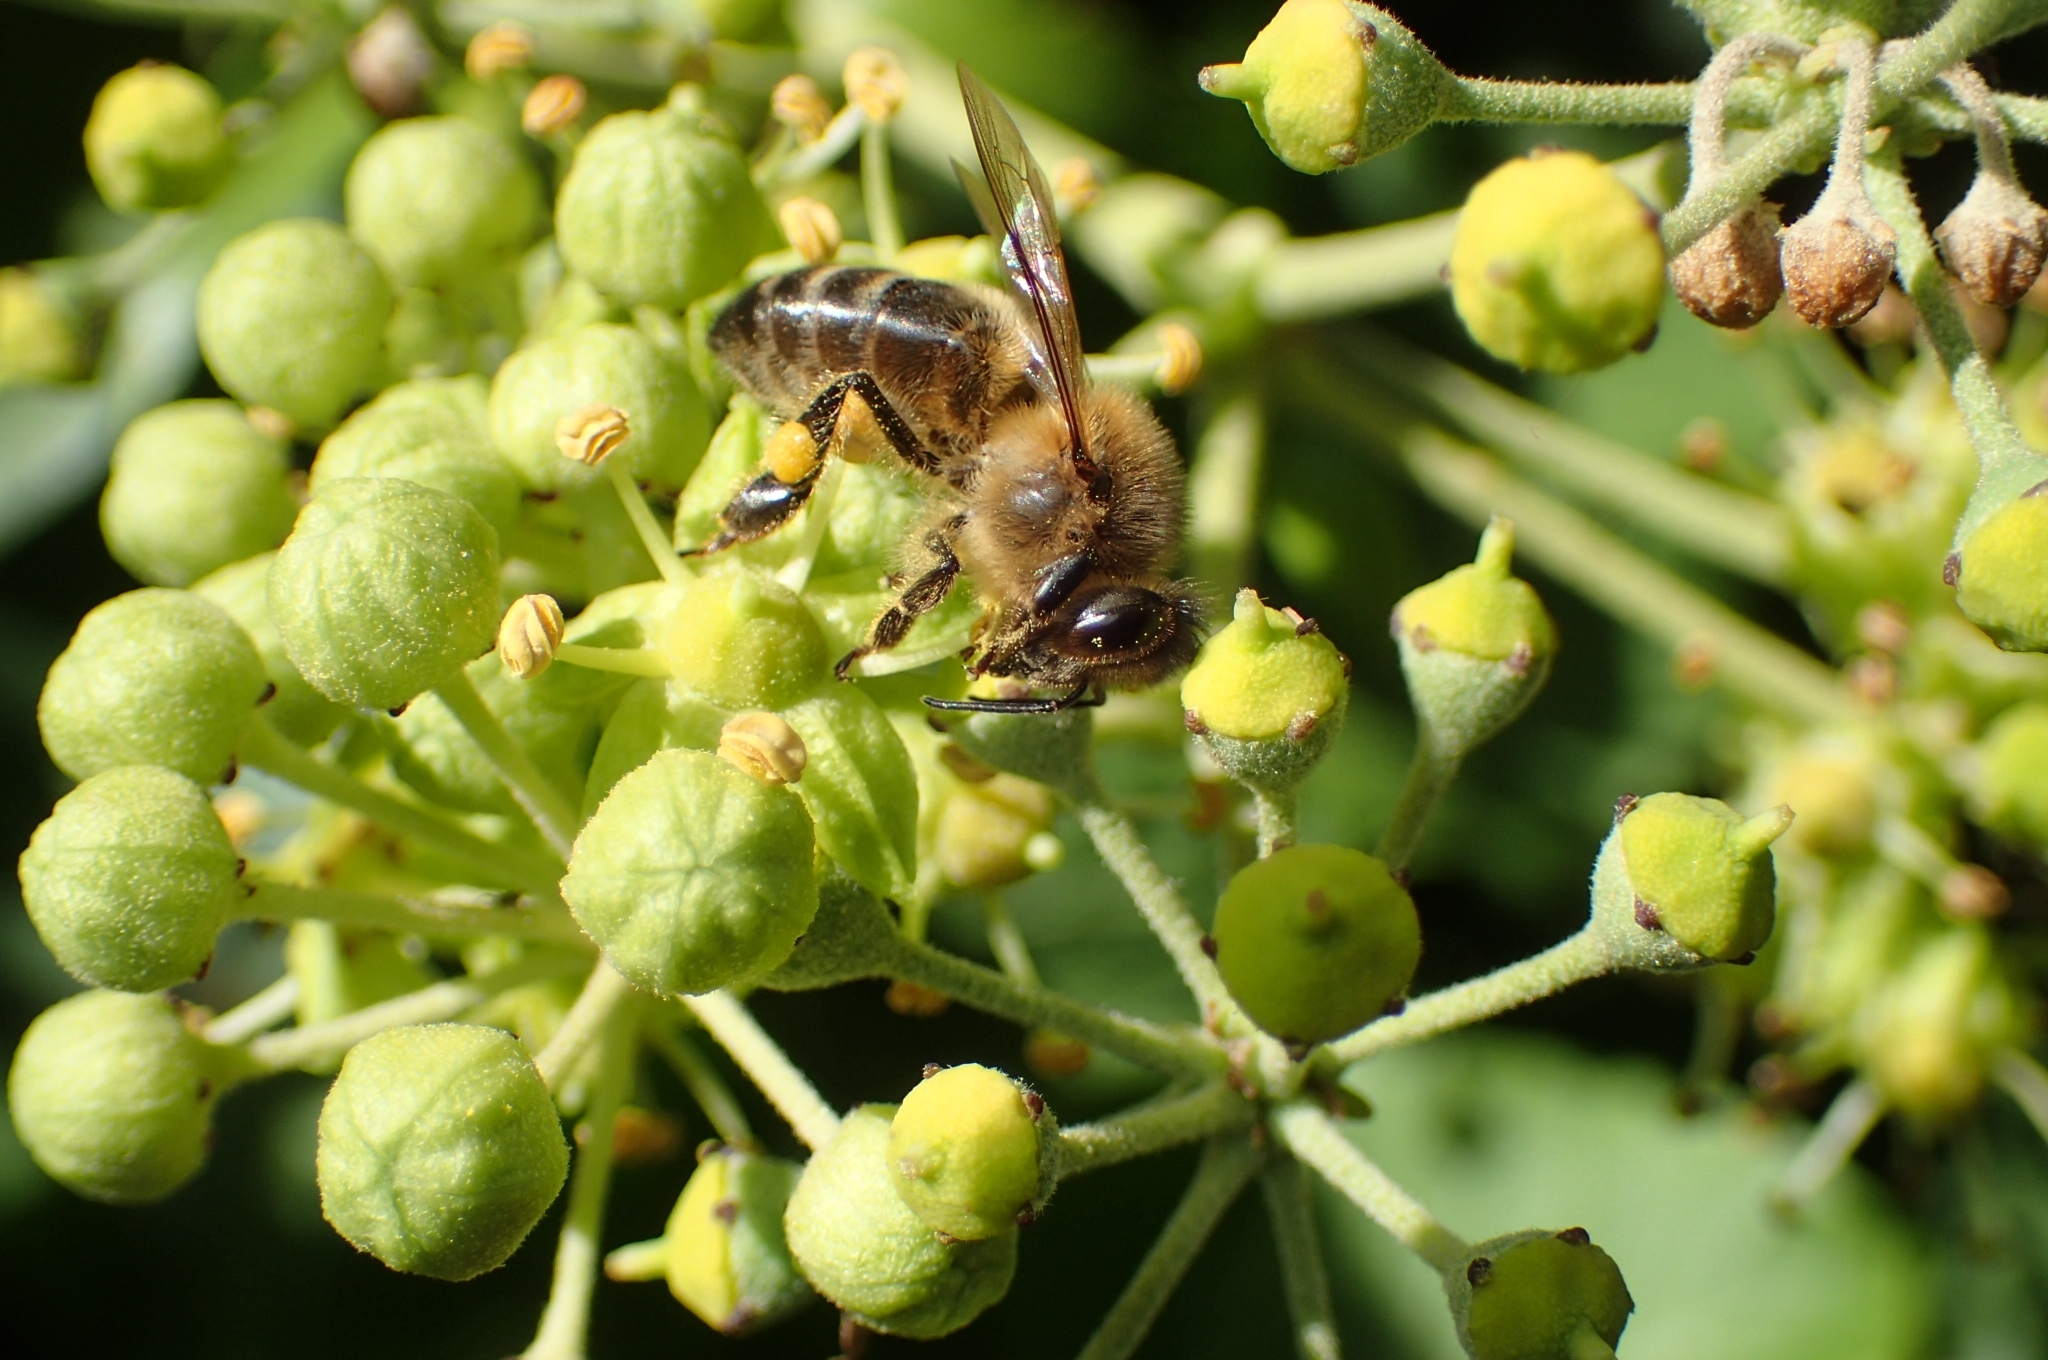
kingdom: Animalia
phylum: Arthropoda
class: Insecta
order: Hymenoptera
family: Apidae
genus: Apis
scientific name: Apis mellifera
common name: Honey bee
